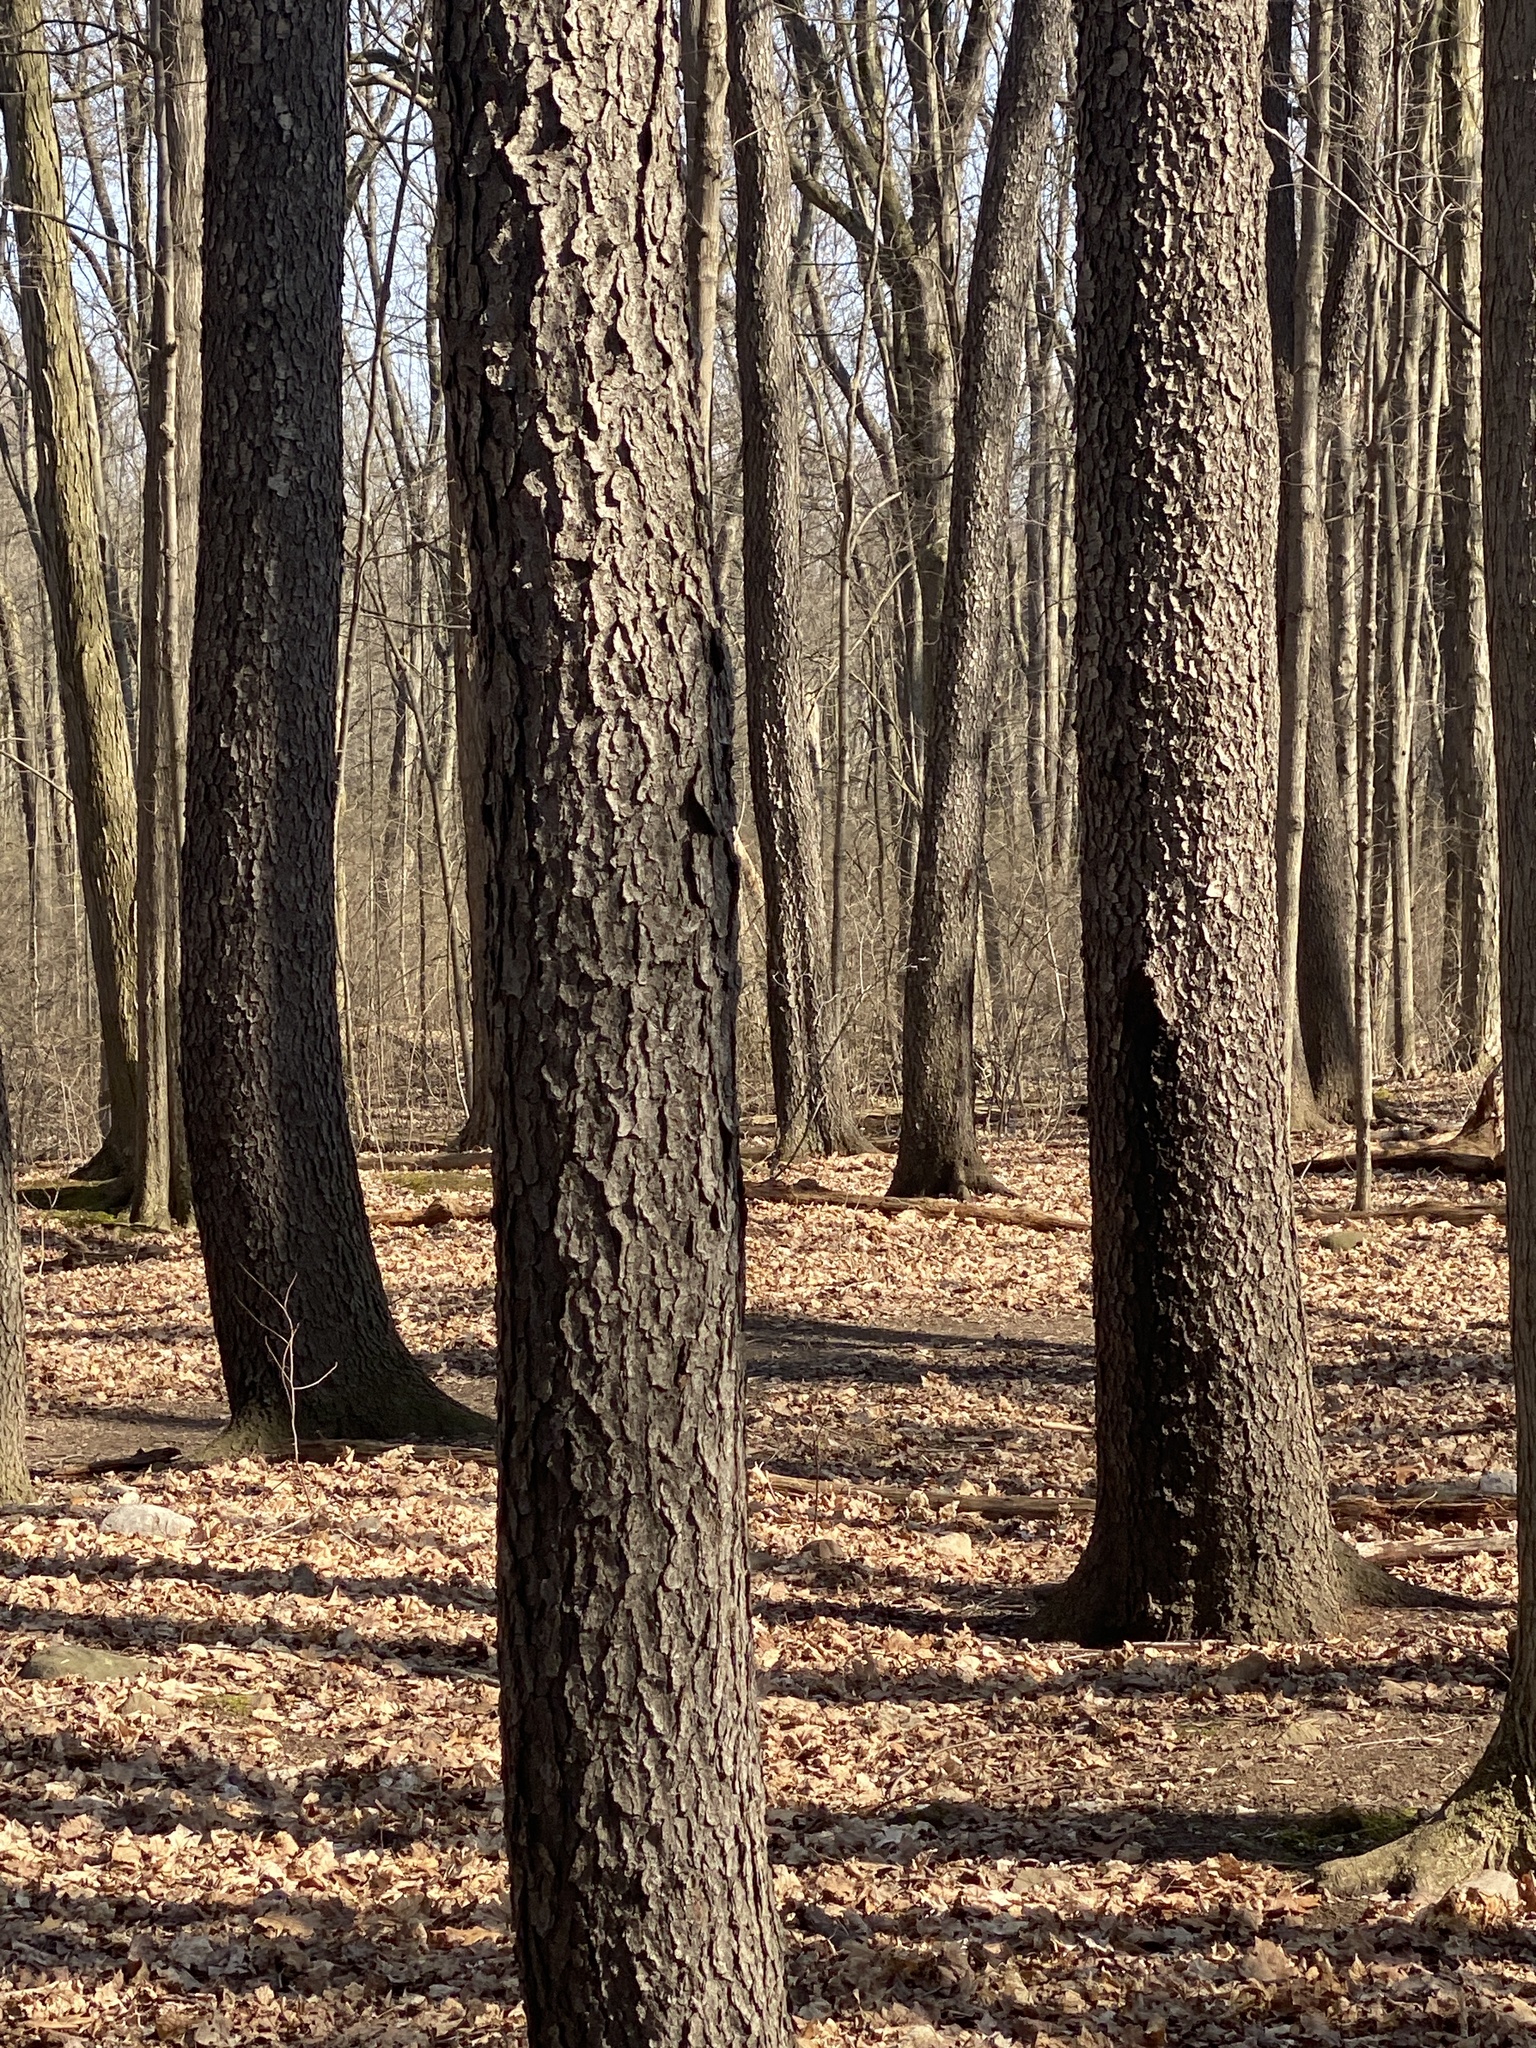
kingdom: Plantae
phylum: Tracheophyta
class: Magnoliopsida
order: Rosales
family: Rosaceae
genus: Prunus
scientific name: Prunus serotina
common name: Black cherry
